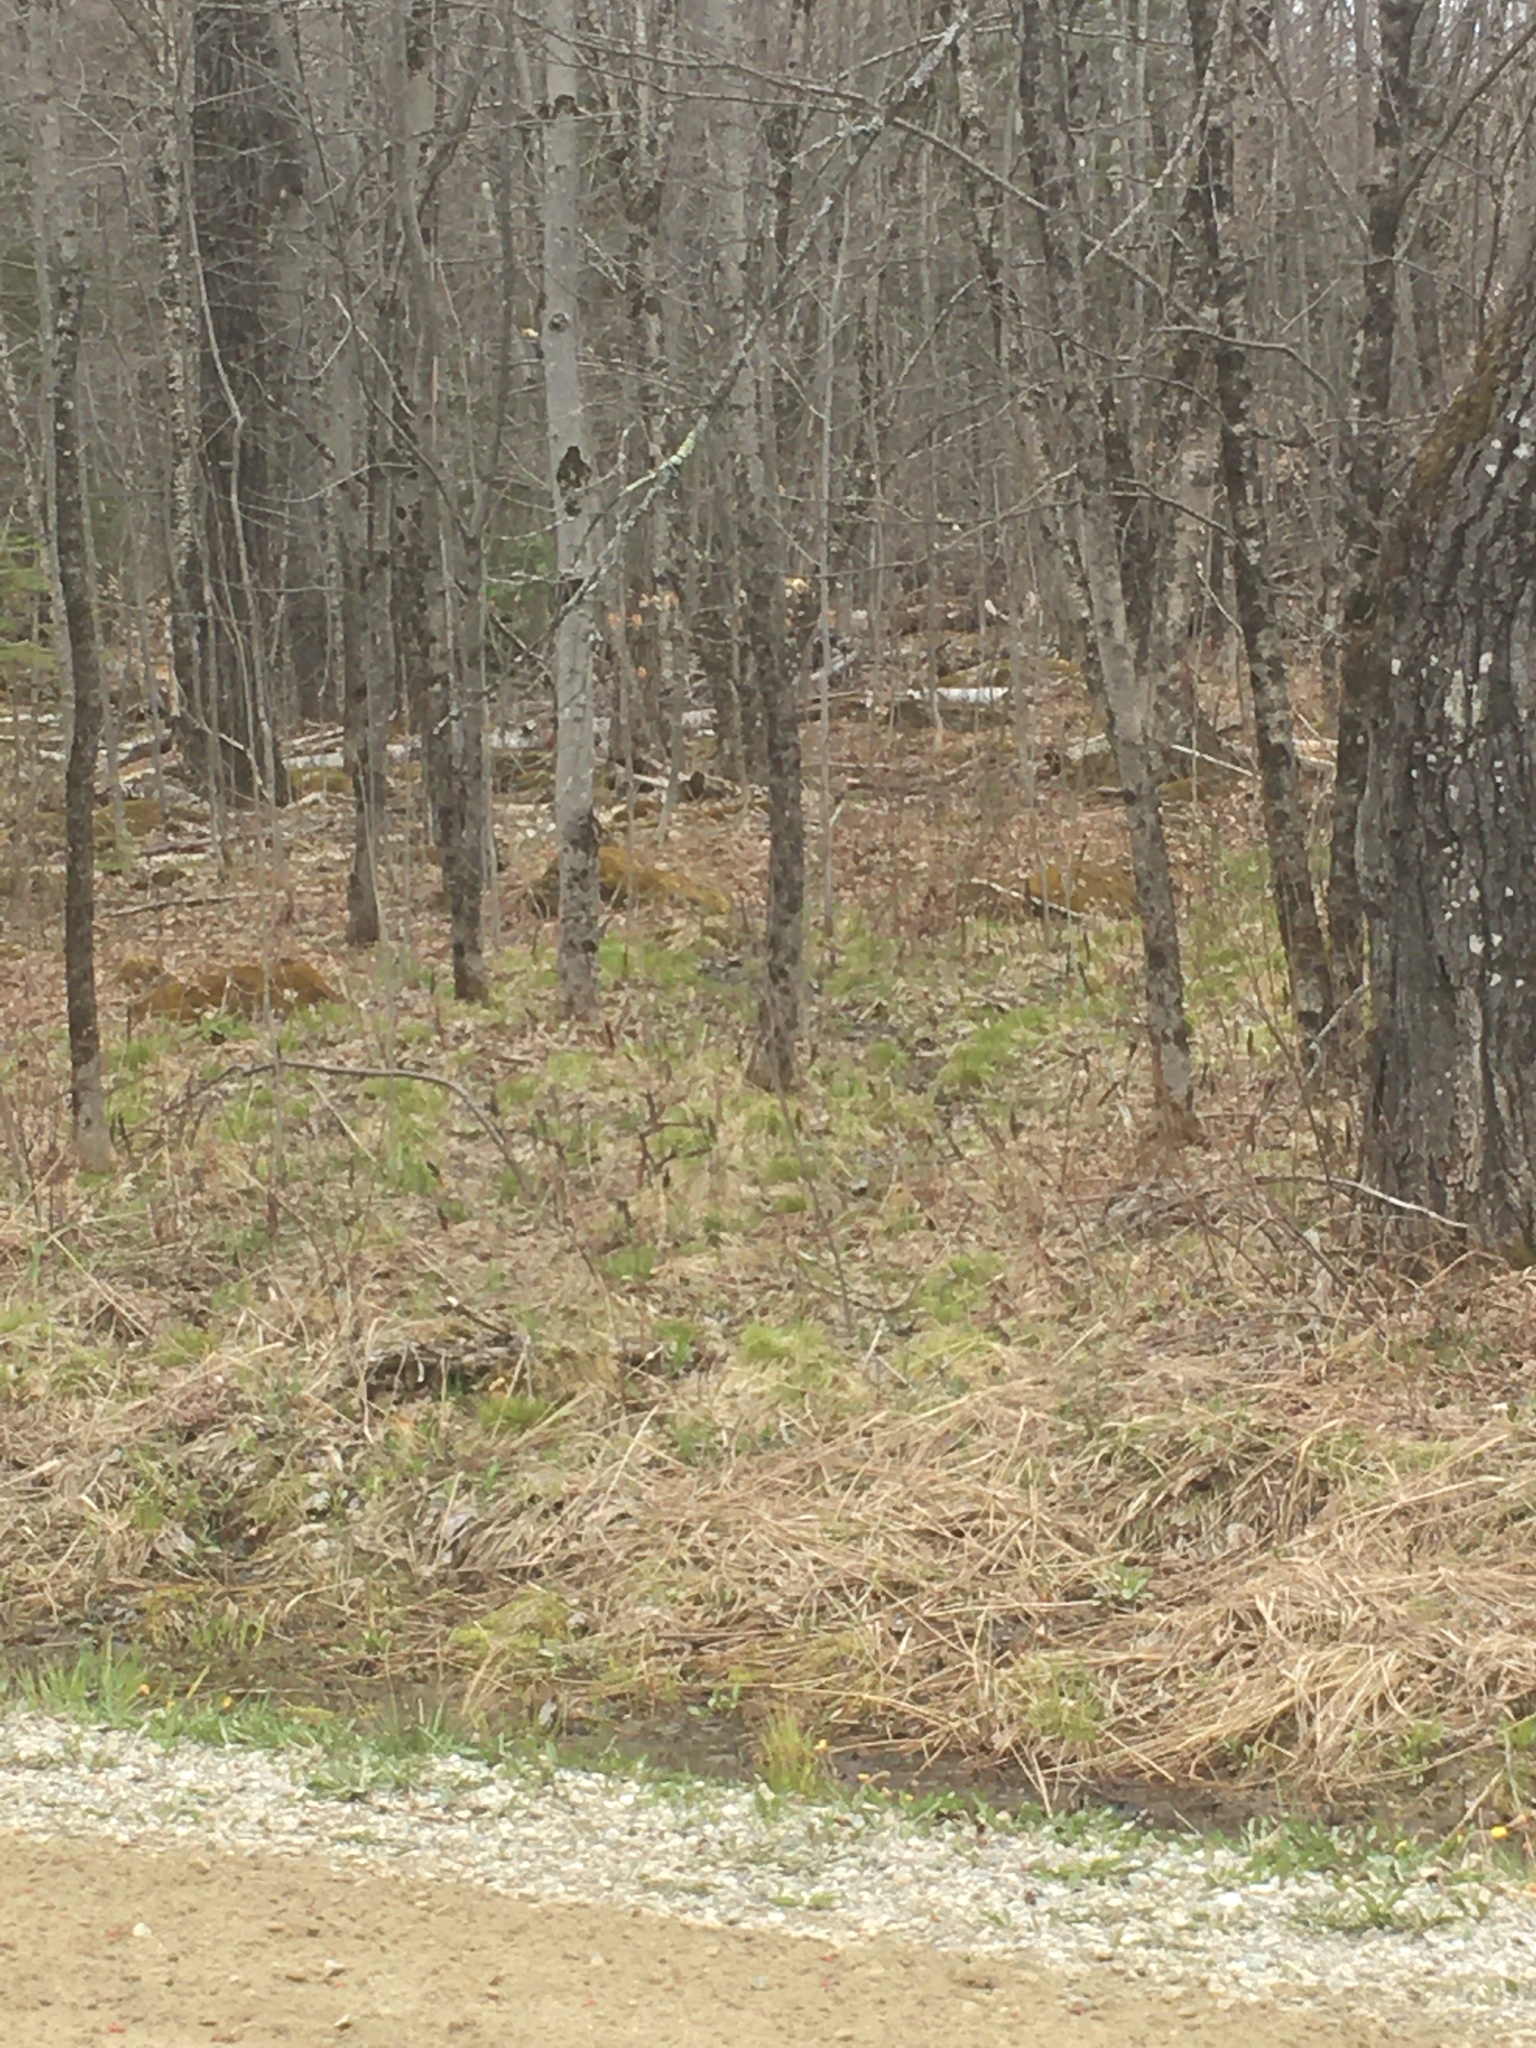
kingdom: Plantae
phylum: Tracheophyta
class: Polypodiopsida
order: Polypodiales
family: Onocleaceae
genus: Onoclea
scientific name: Onoclea sensibilis
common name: Sensitive fern
